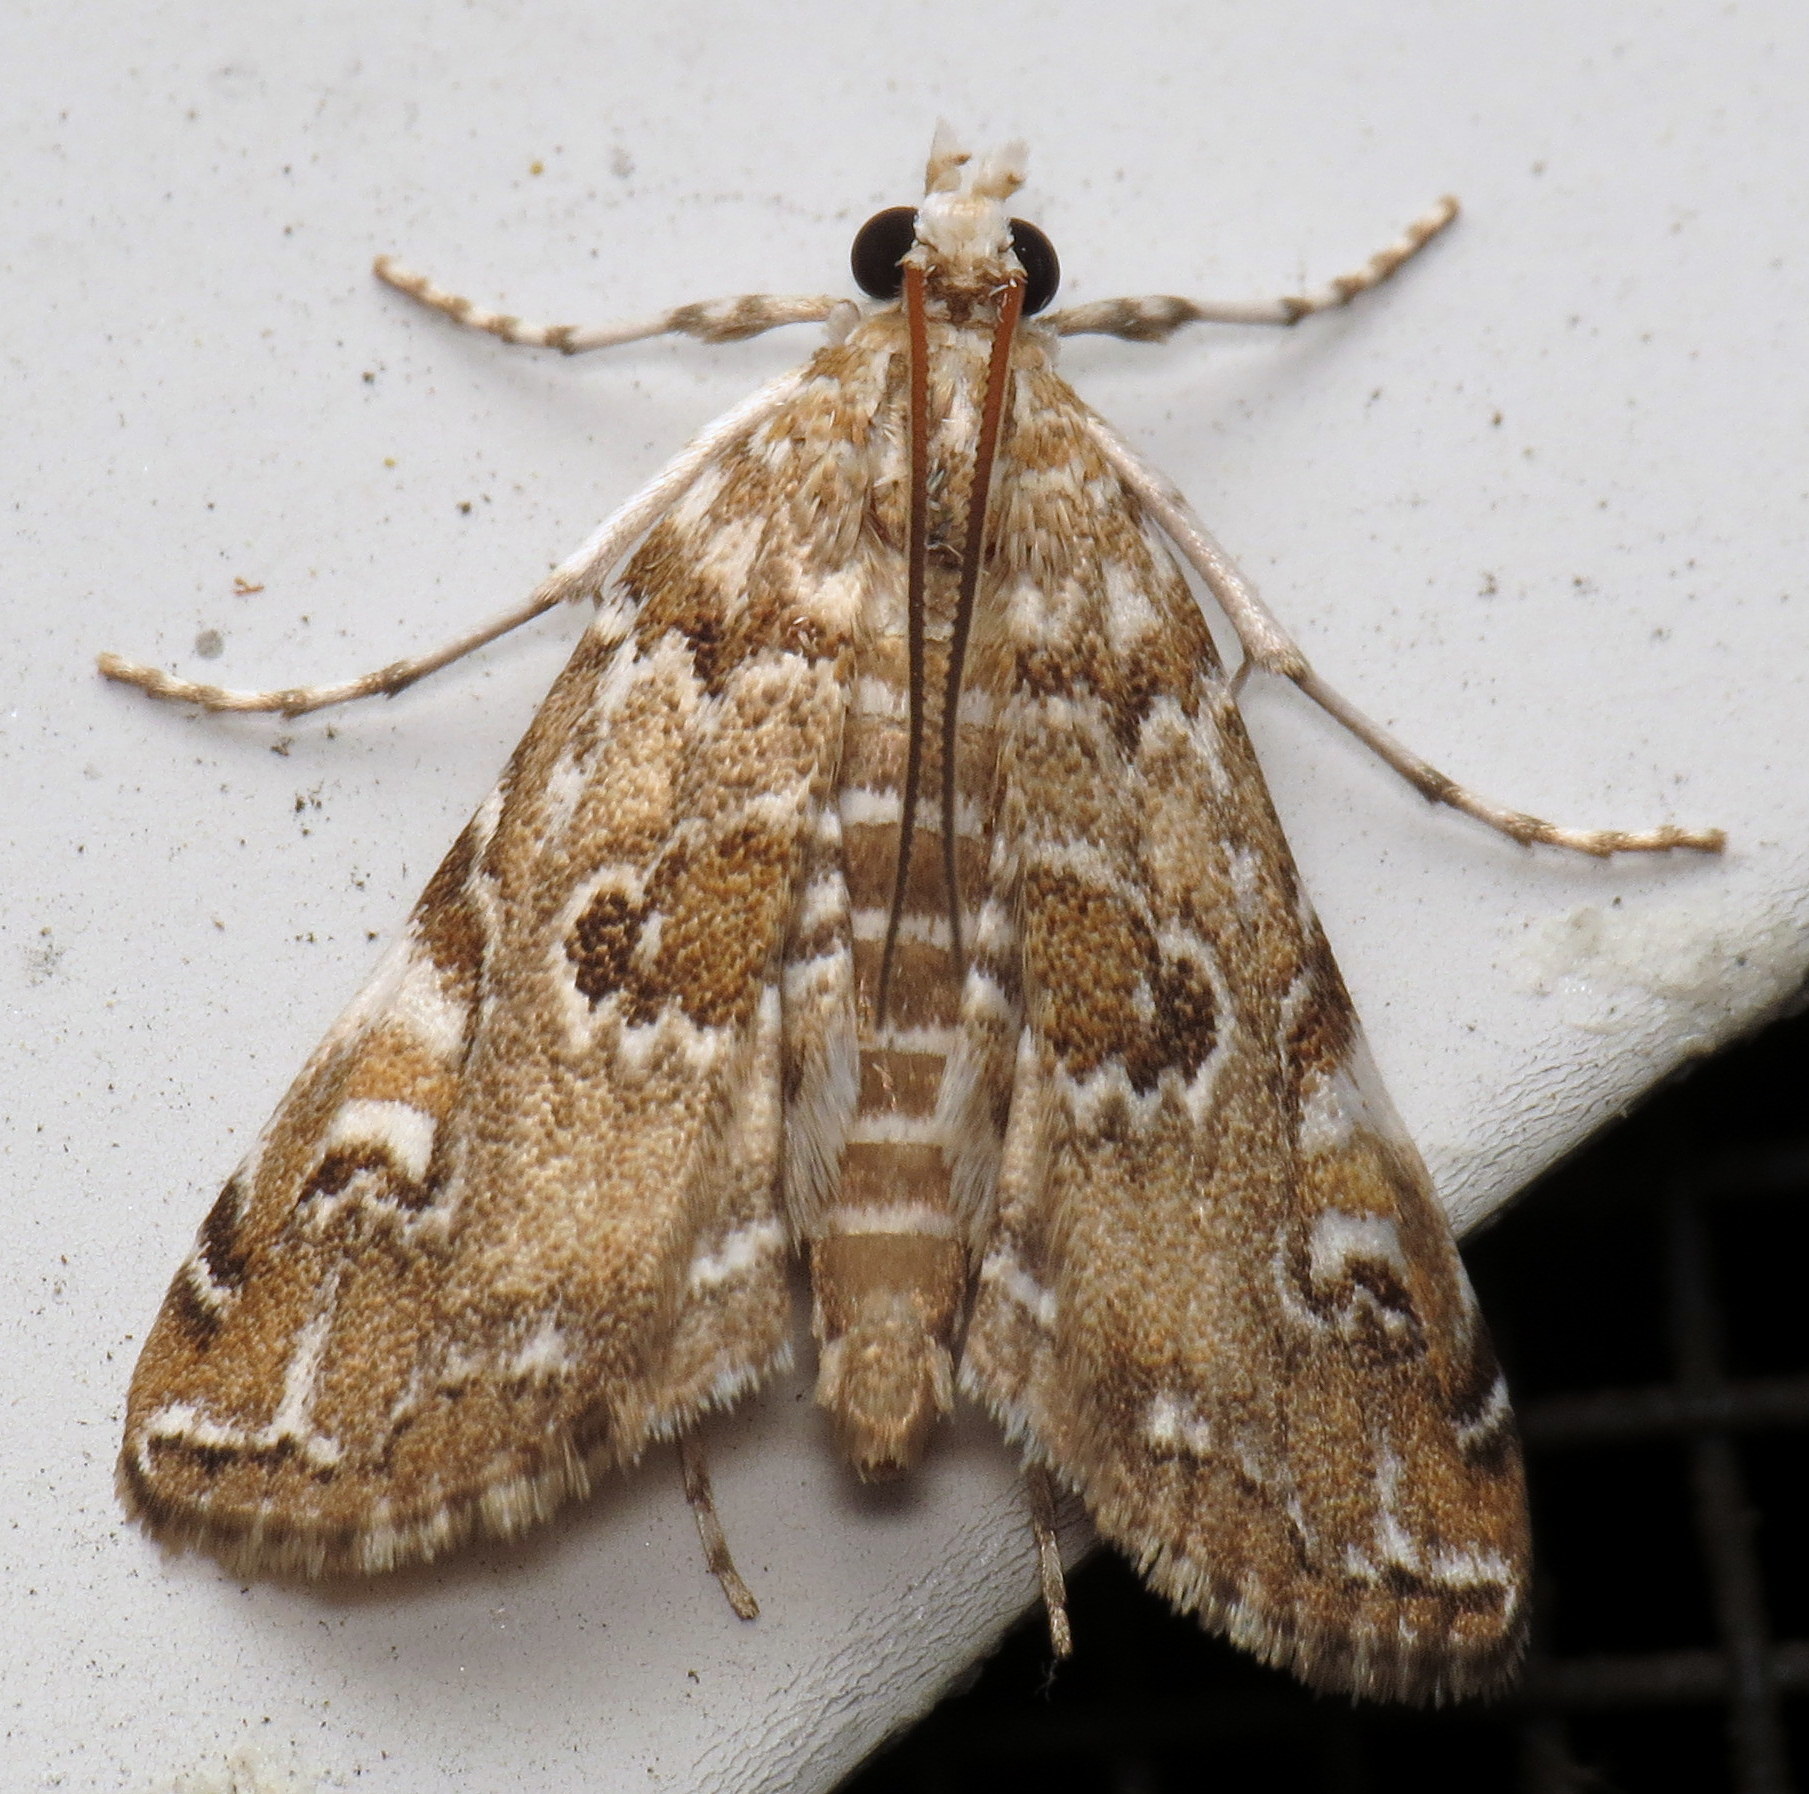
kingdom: Animalia
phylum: Arthropoda
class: Insecta
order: Lepidoptera
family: Crambidae
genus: Elophila
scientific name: Elophila gyralis
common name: Waterlily borer moth
